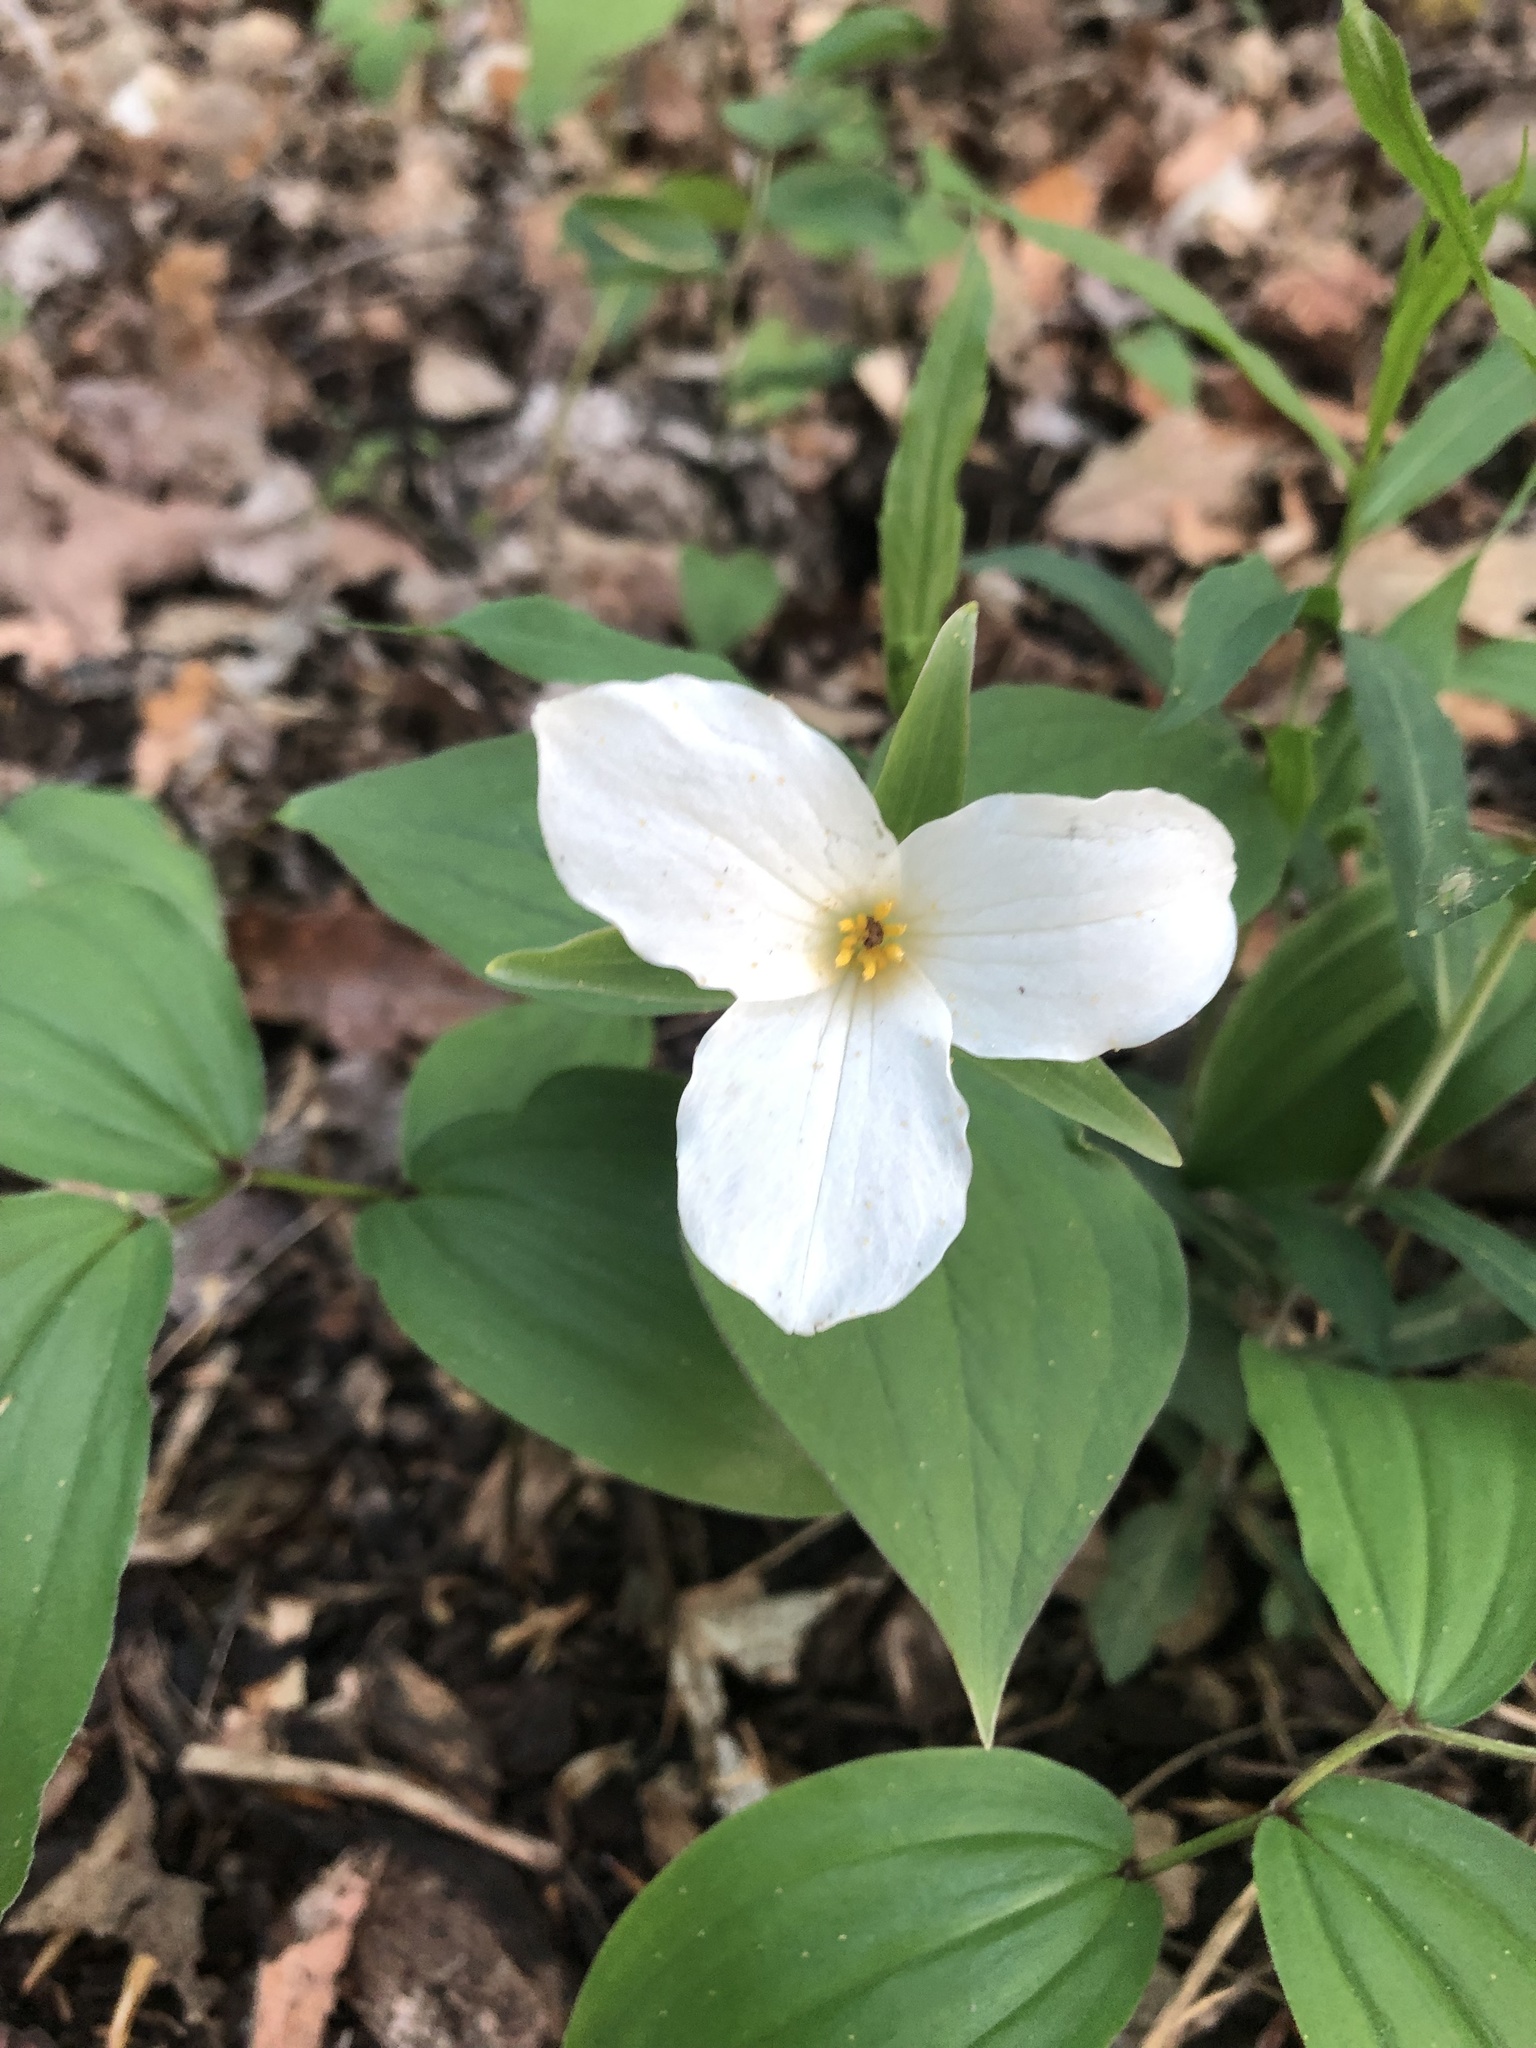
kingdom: Plantae
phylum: Tracheophyta
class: Liliopsida
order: Liliales
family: Melanthiaceae
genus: Trillium
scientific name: Trillium grandiflorum
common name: Great white trillium
